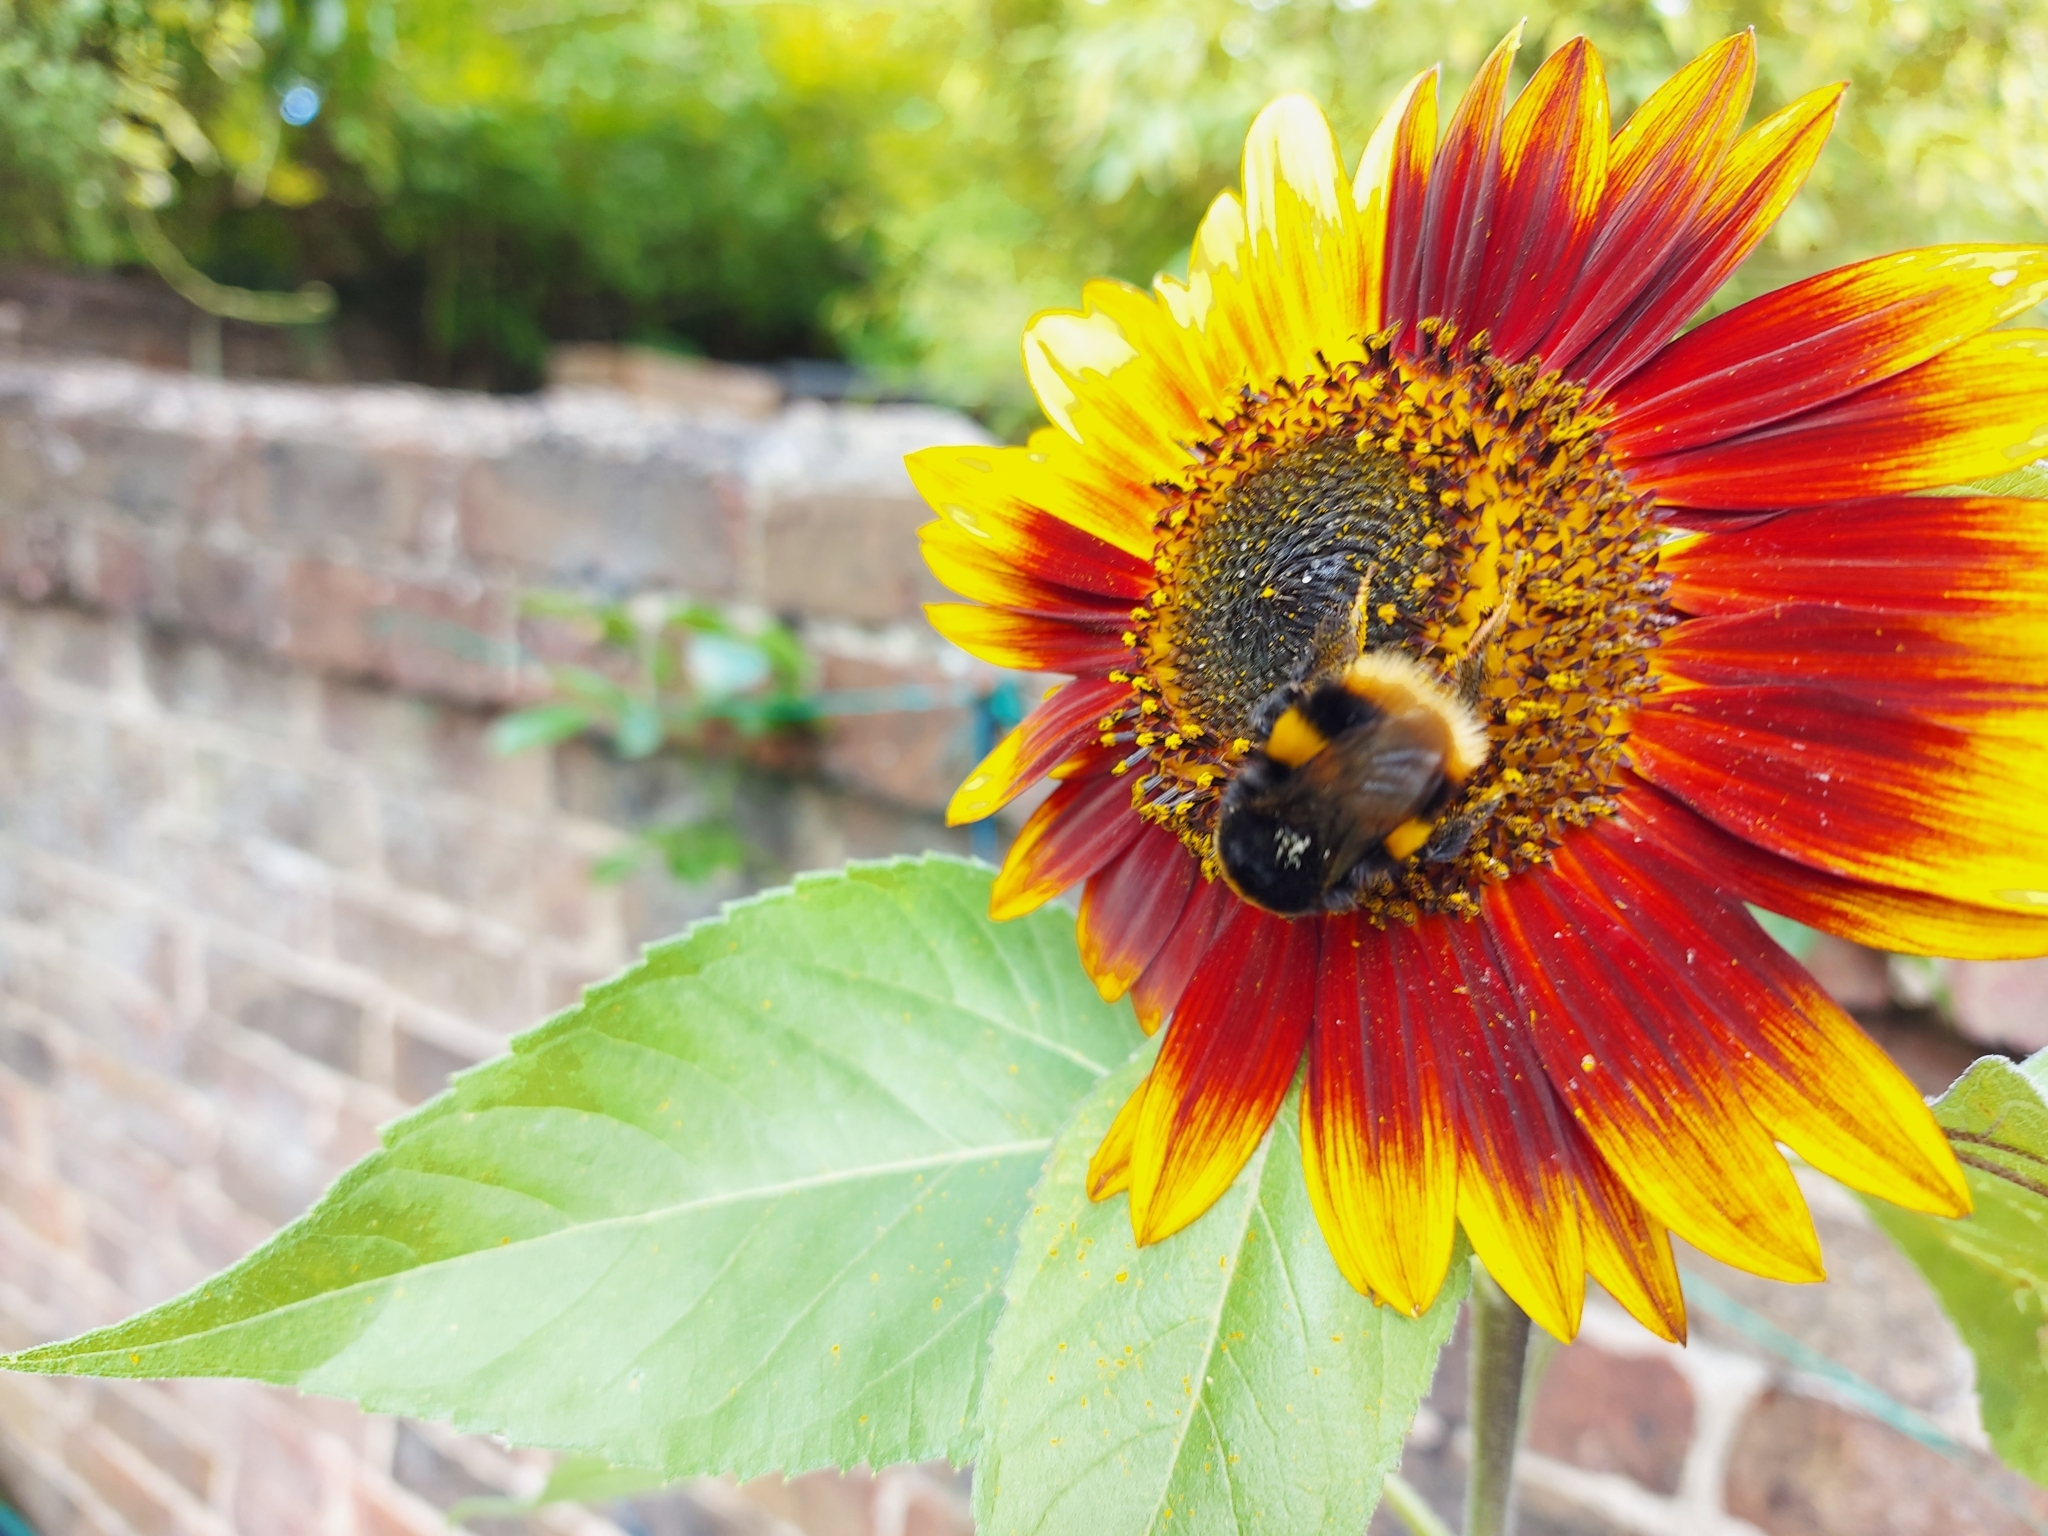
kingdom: Animalia
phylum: Arthropoda
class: Insecta
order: Hymenoptera
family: Apidae
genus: Bombus
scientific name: Bombus terrestris
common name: Buff-tailed bumblebee
